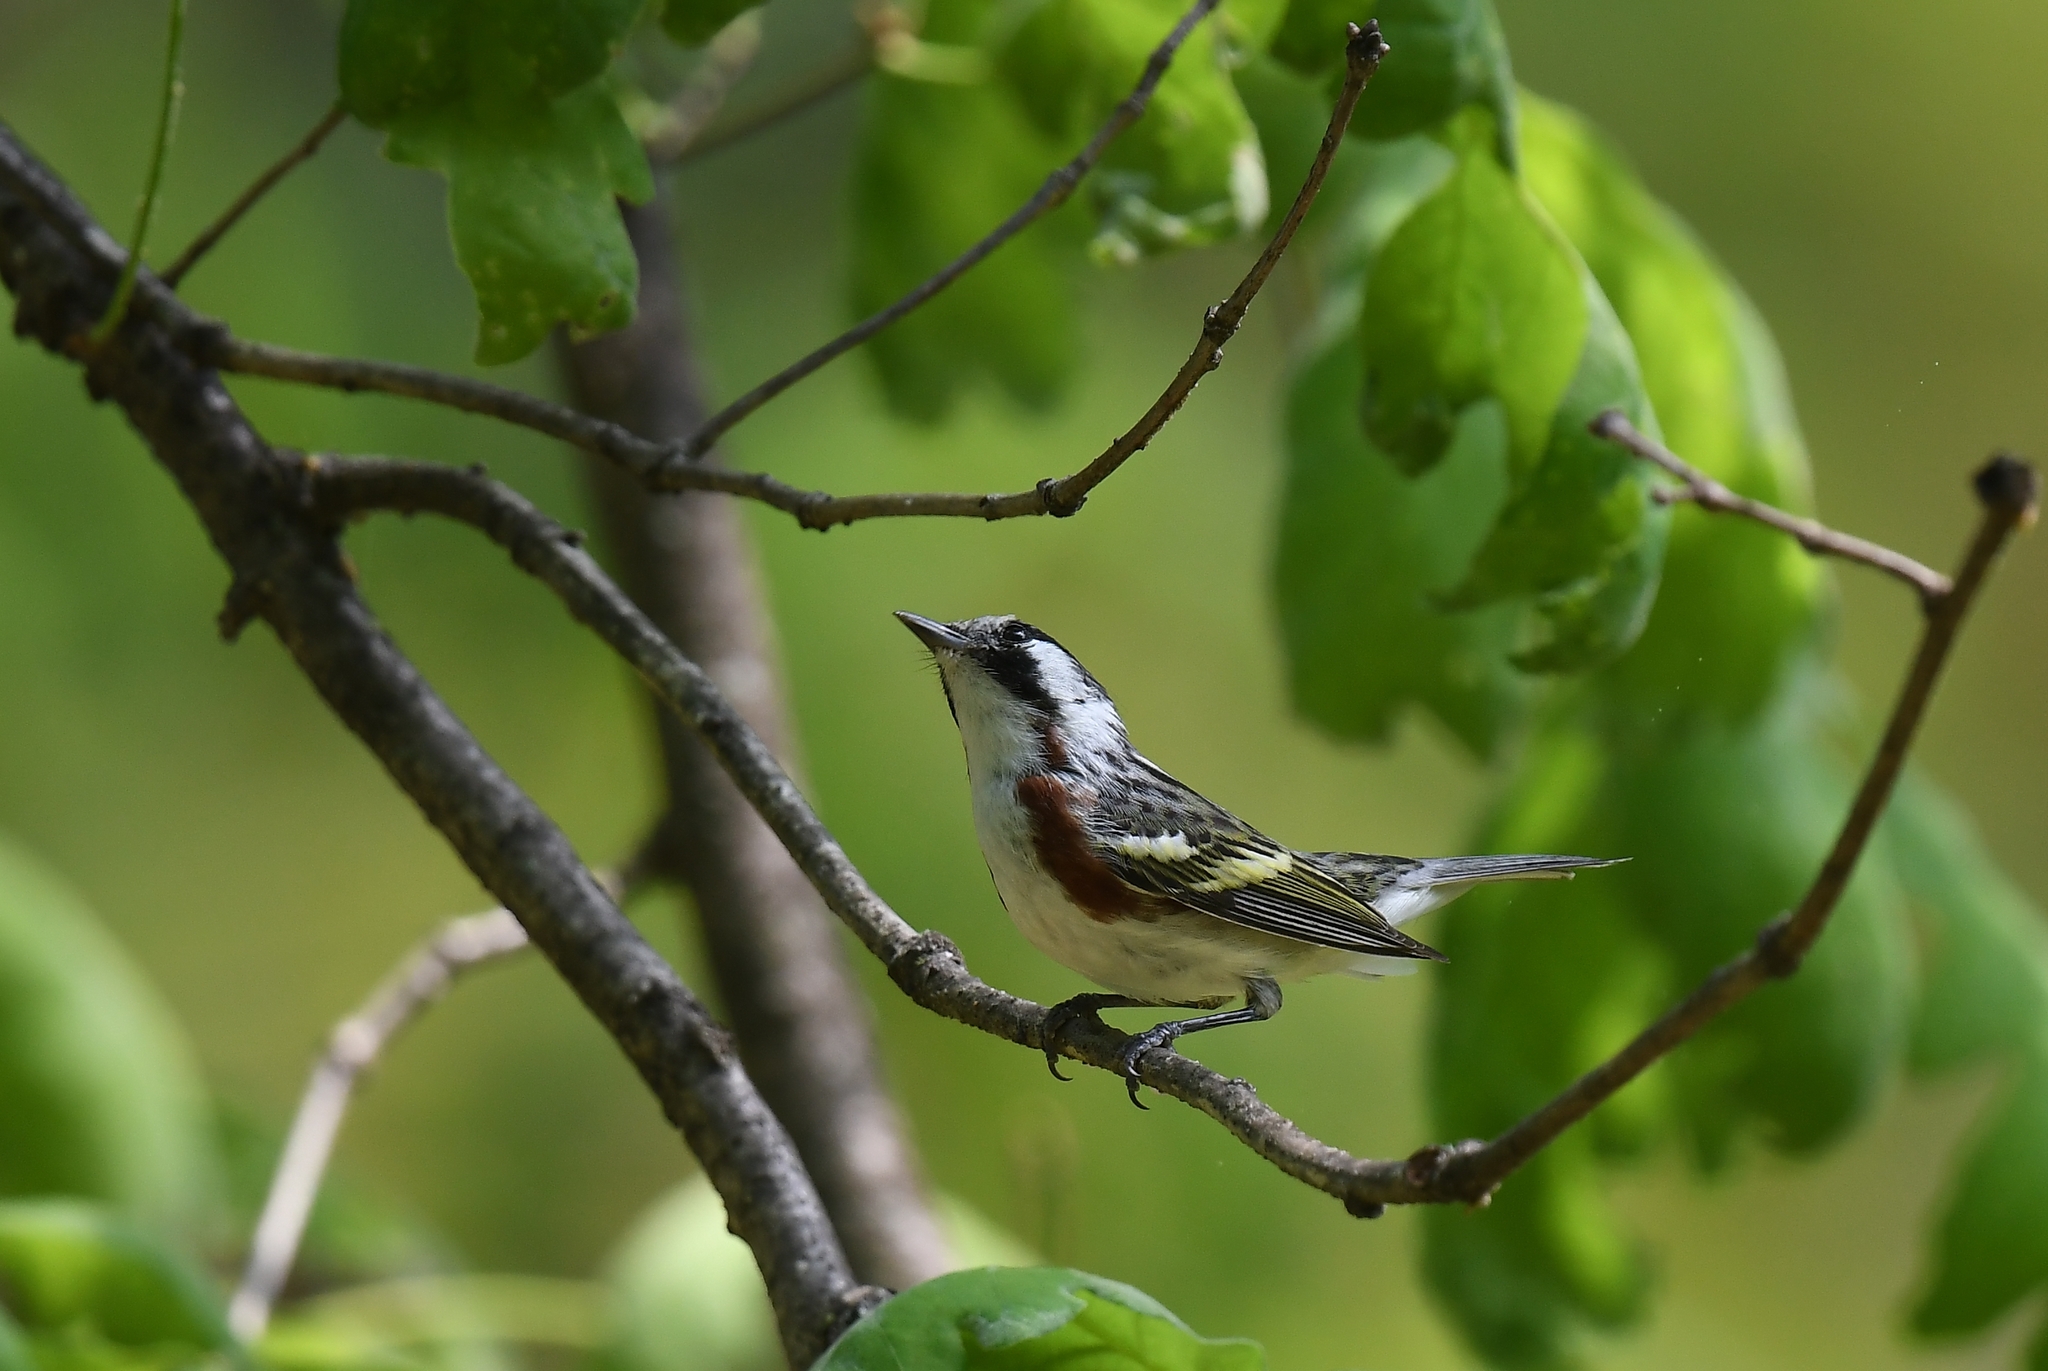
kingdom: Animalia
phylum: Chordata
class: Aves
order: Passeriformes
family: Parulidae
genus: Setophaga
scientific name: Setophaga pensylvanica
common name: Chestnut-sided warbler
